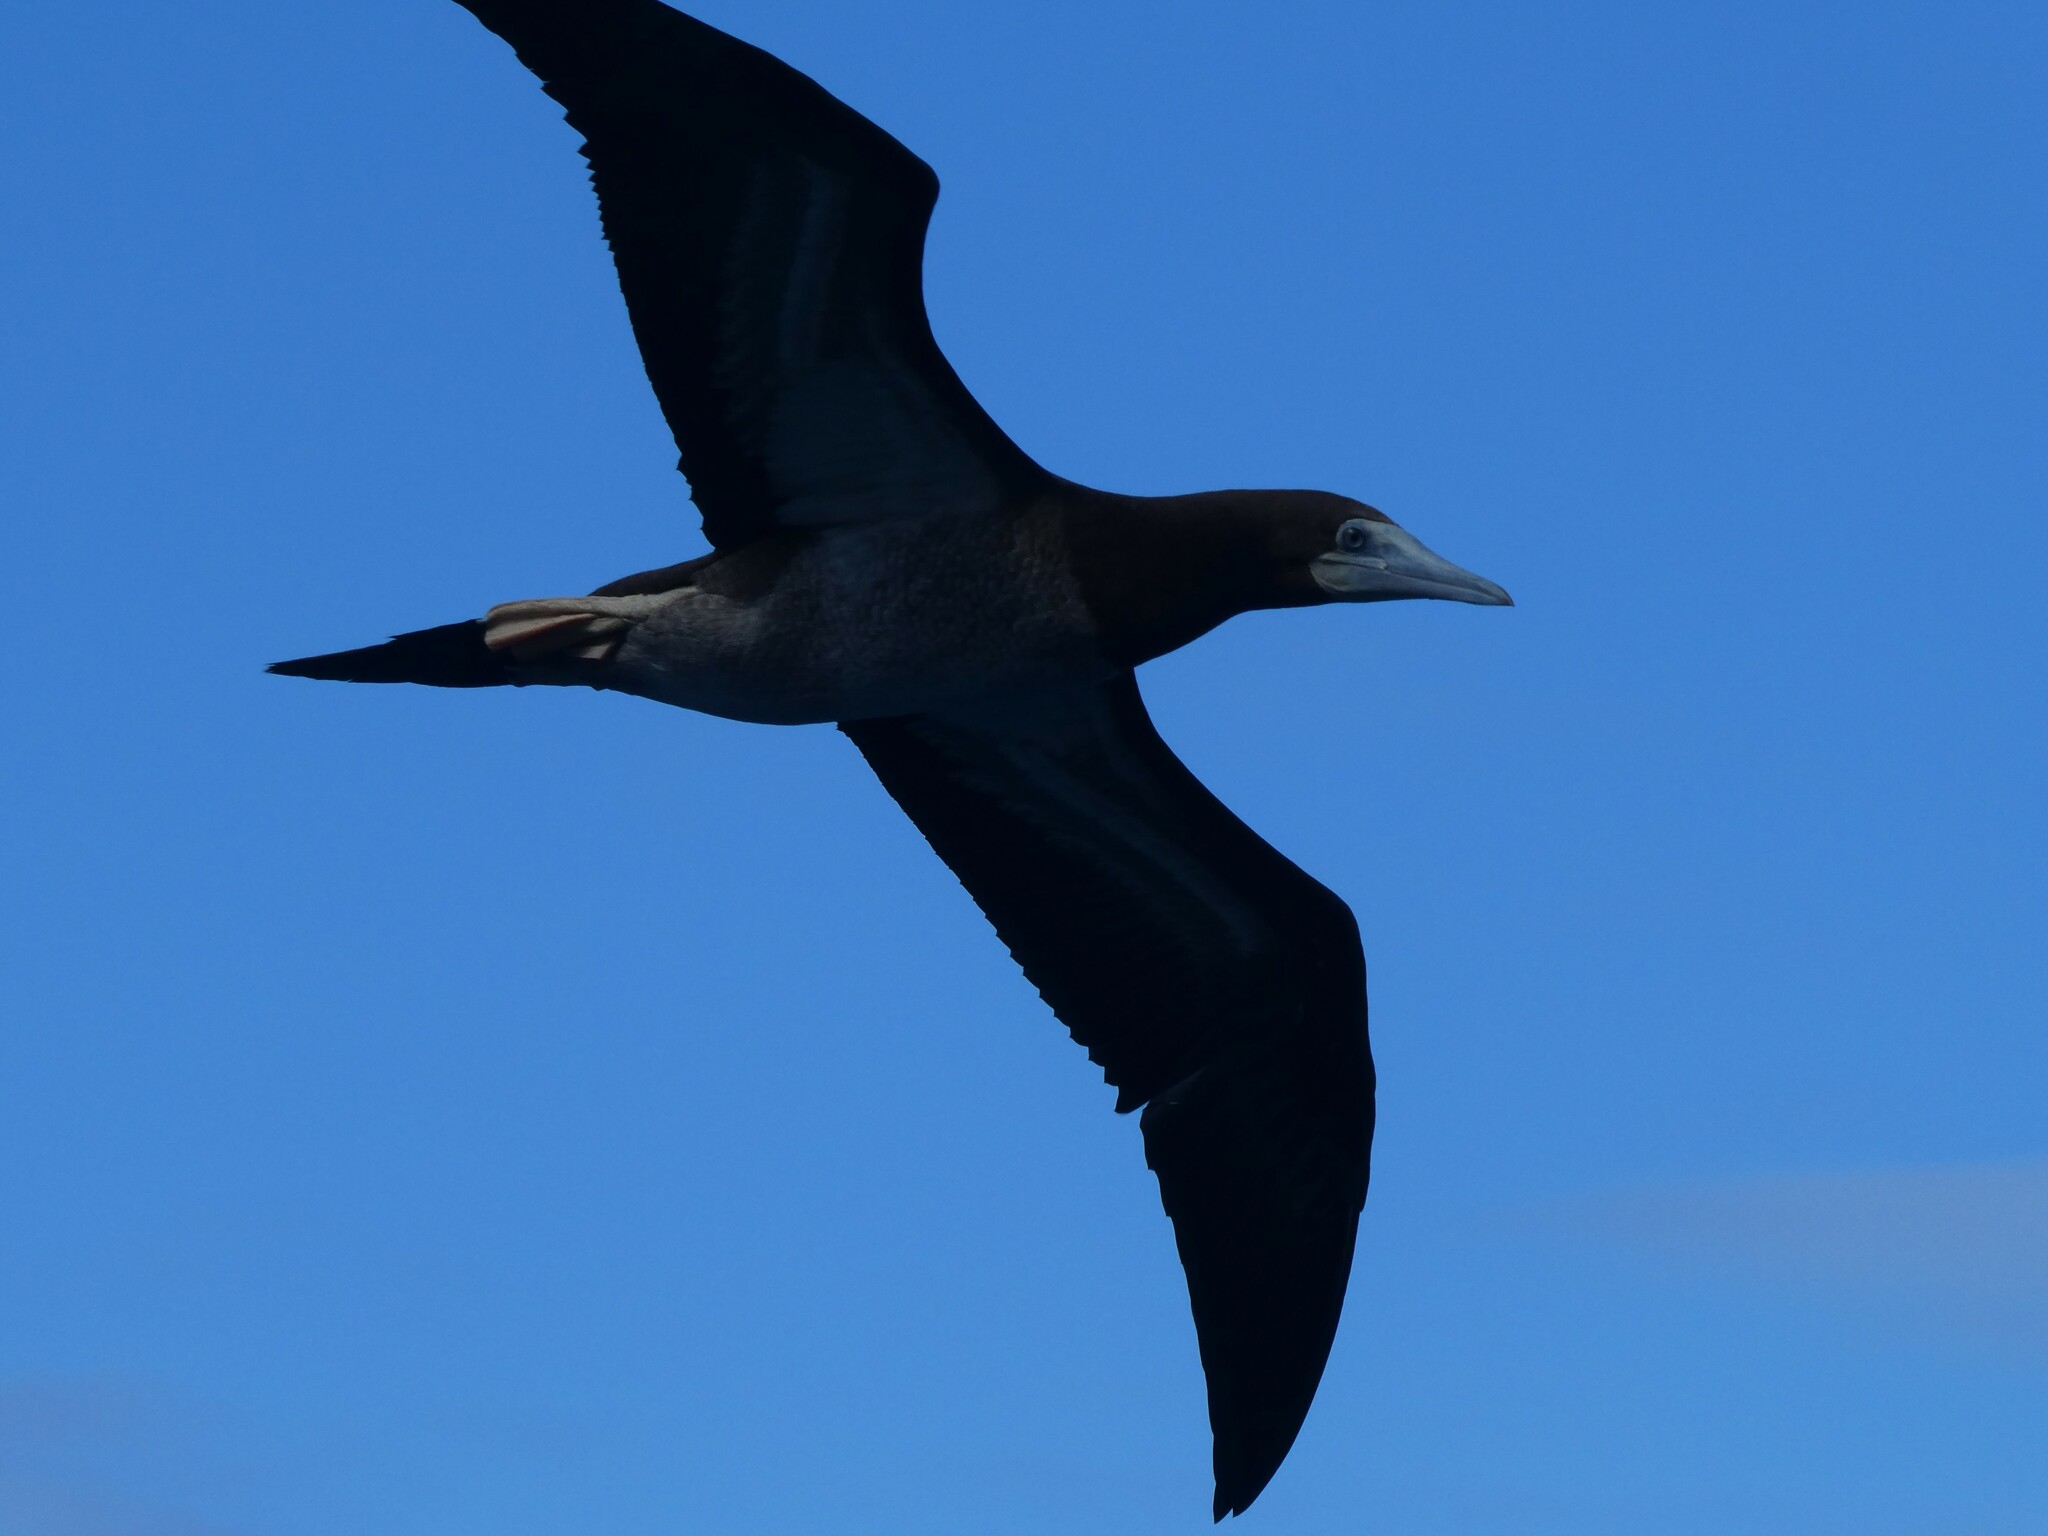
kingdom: Animalia
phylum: Chordata
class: Aves
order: Suliformes
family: Sulidae
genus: Sula
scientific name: Sula leucogaster
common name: Brown booby
